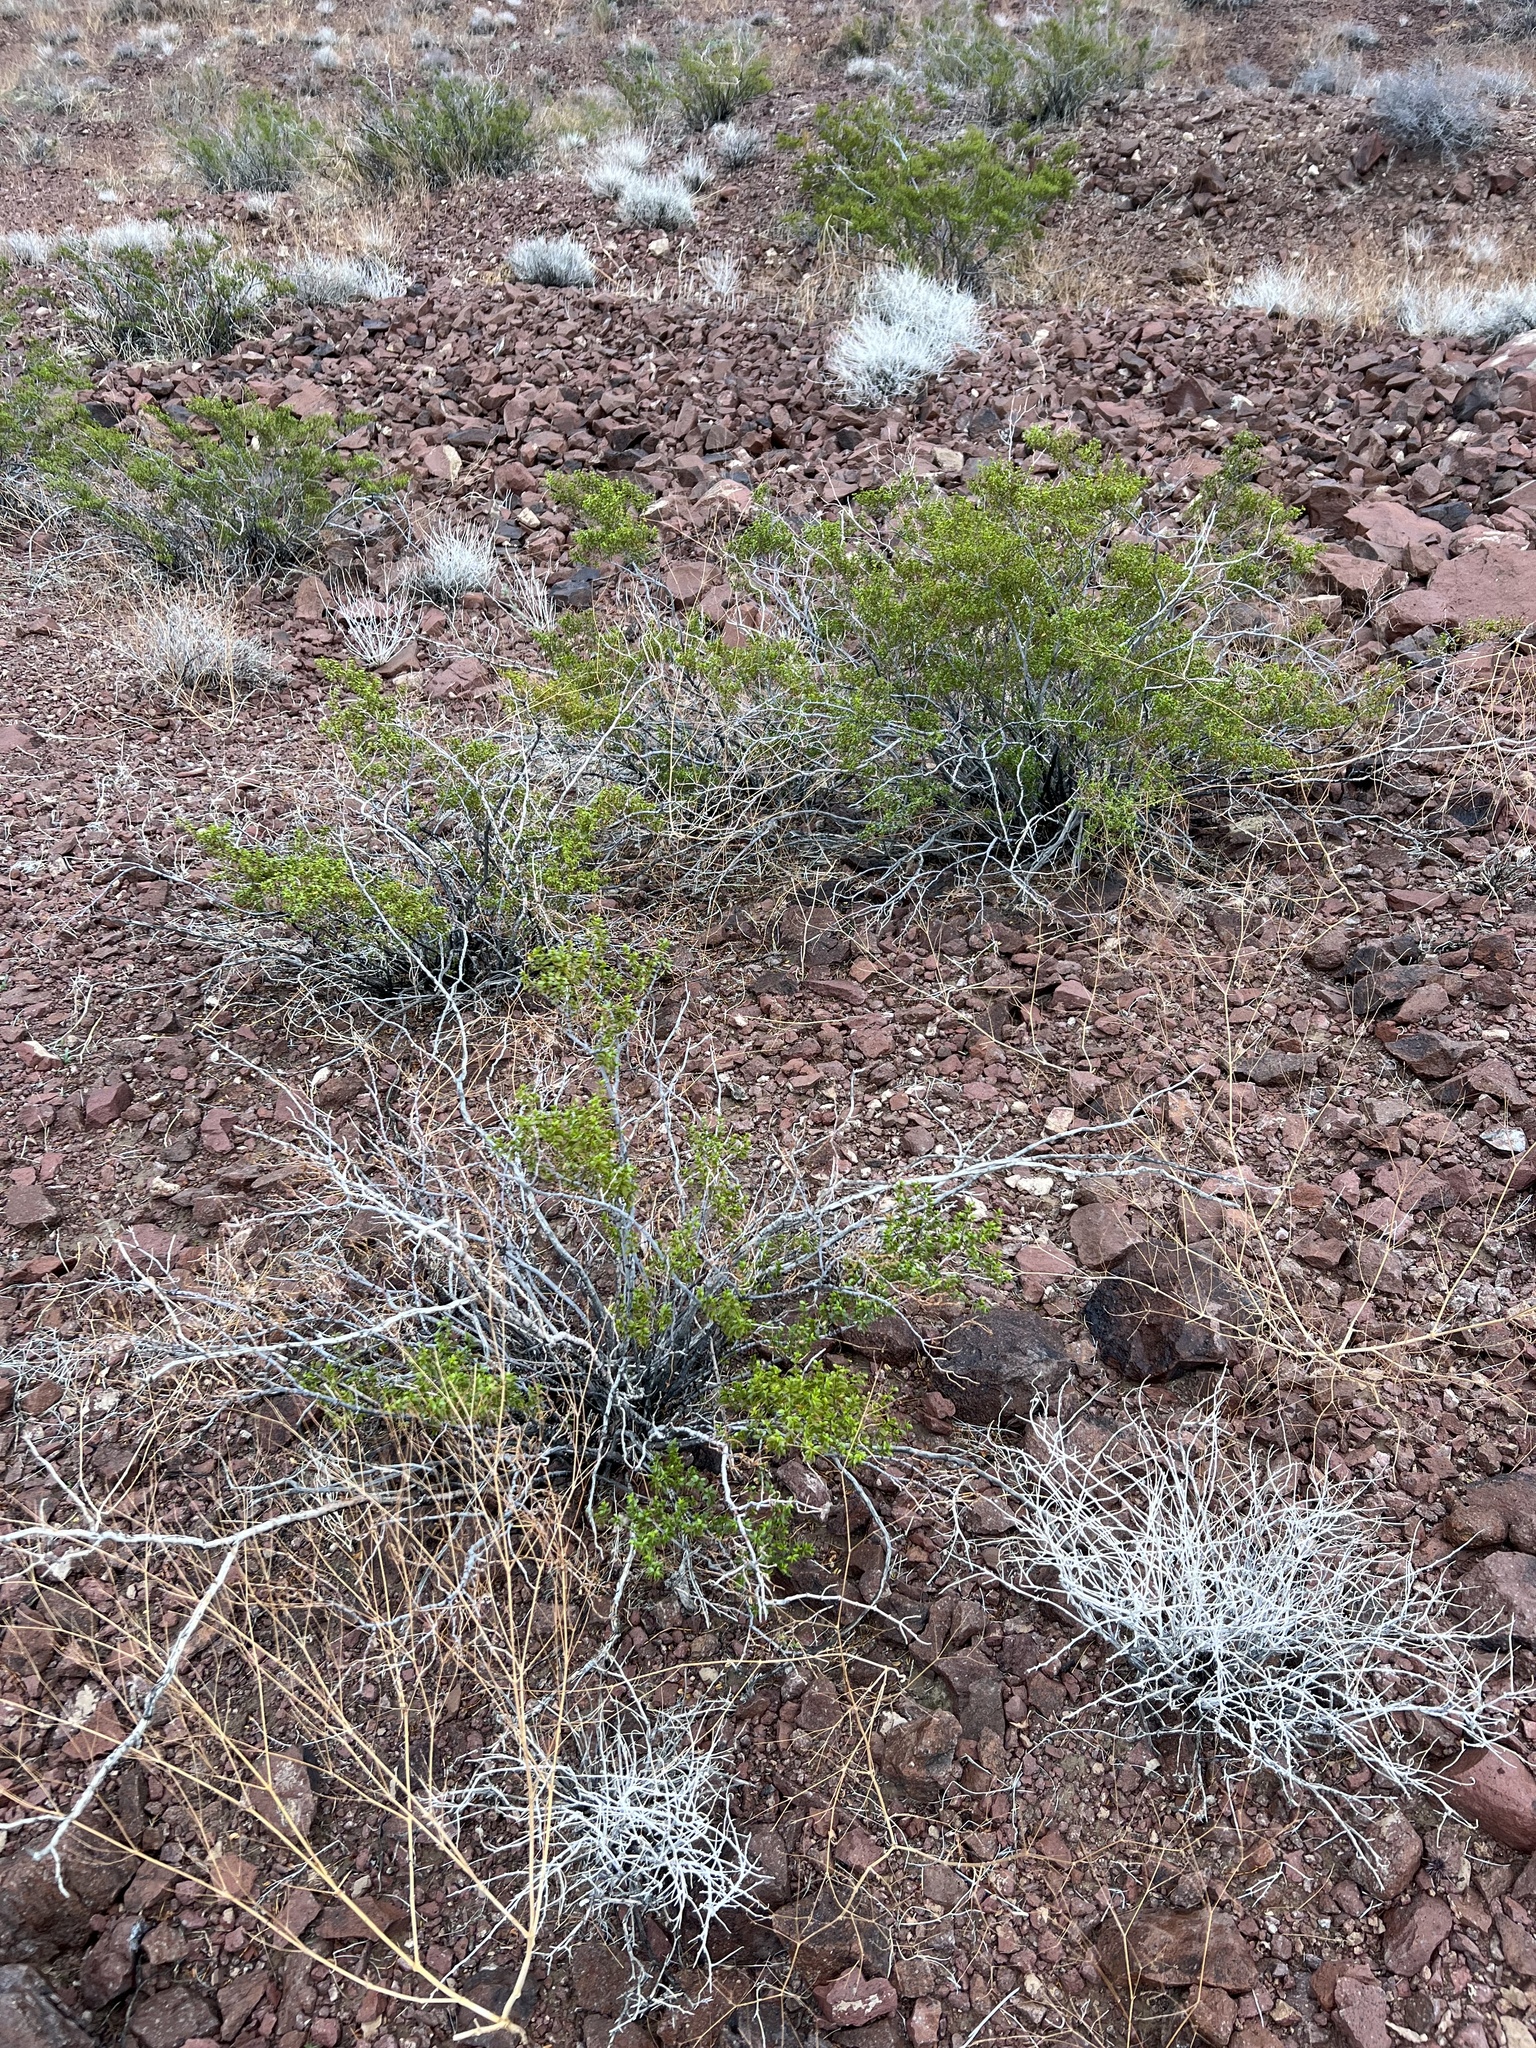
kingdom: Plantae
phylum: Tracheophyta
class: Magnoliopsida
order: Zygophyllales
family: Zygophyllaceae
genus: Larrea
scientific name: Larrea tridentata
